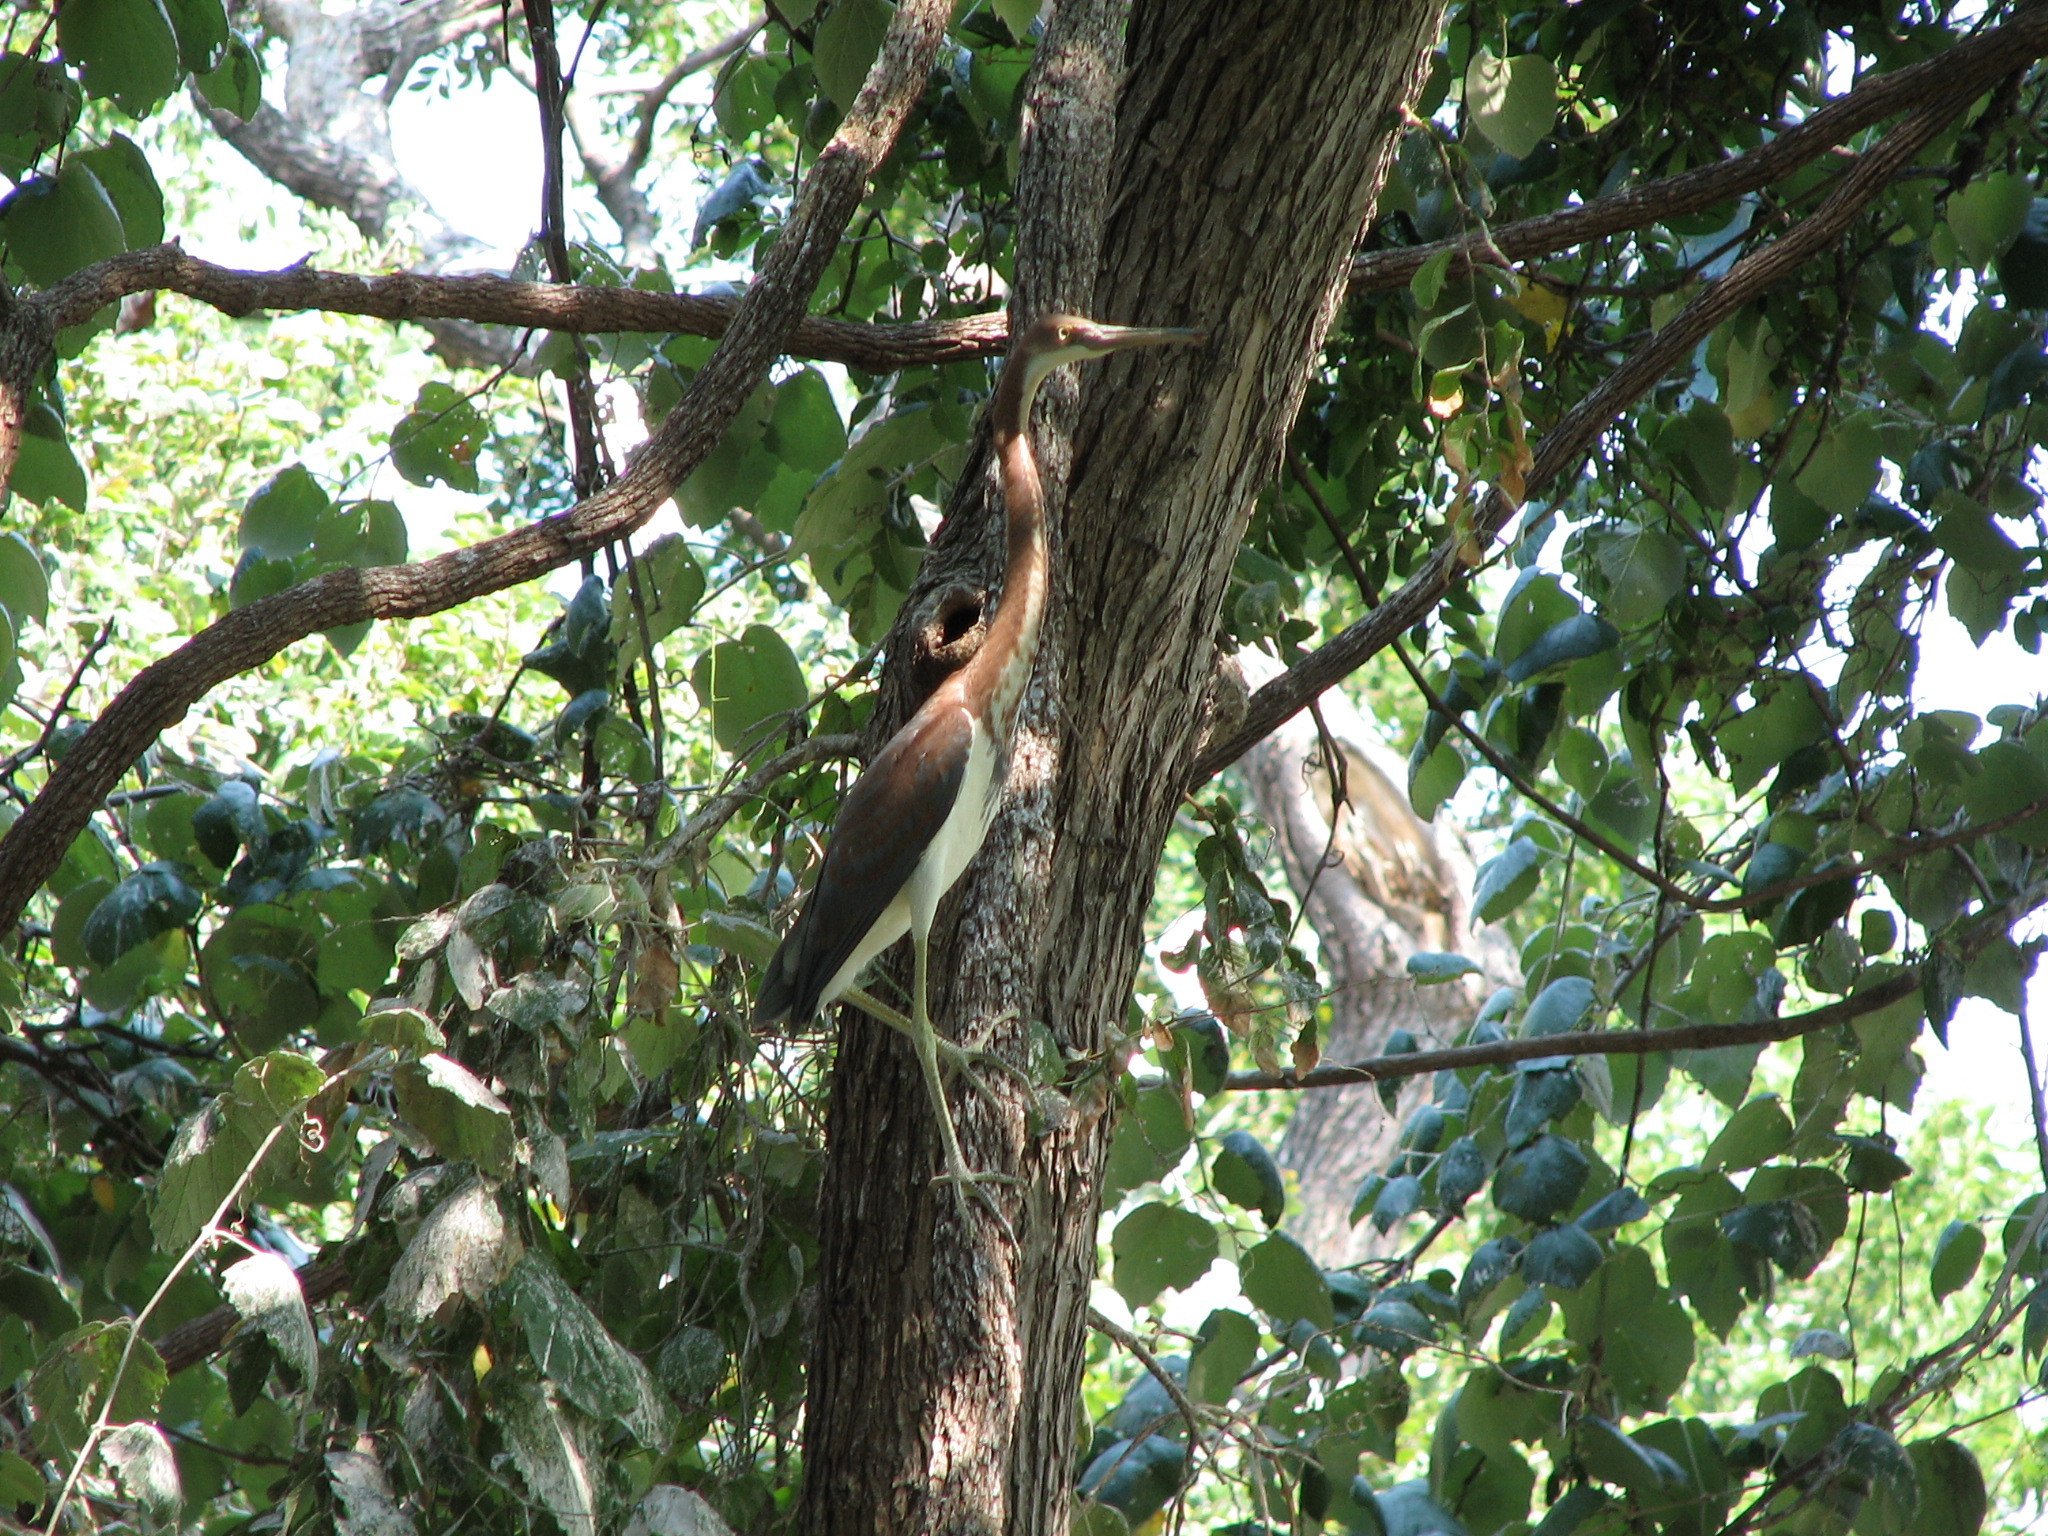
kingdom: Animalia
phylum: Chordata
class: Aves
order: Pelecaniformes
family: Ardeidae
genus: Egretta
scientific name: Egretta tricolor
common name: Tricolored heron
